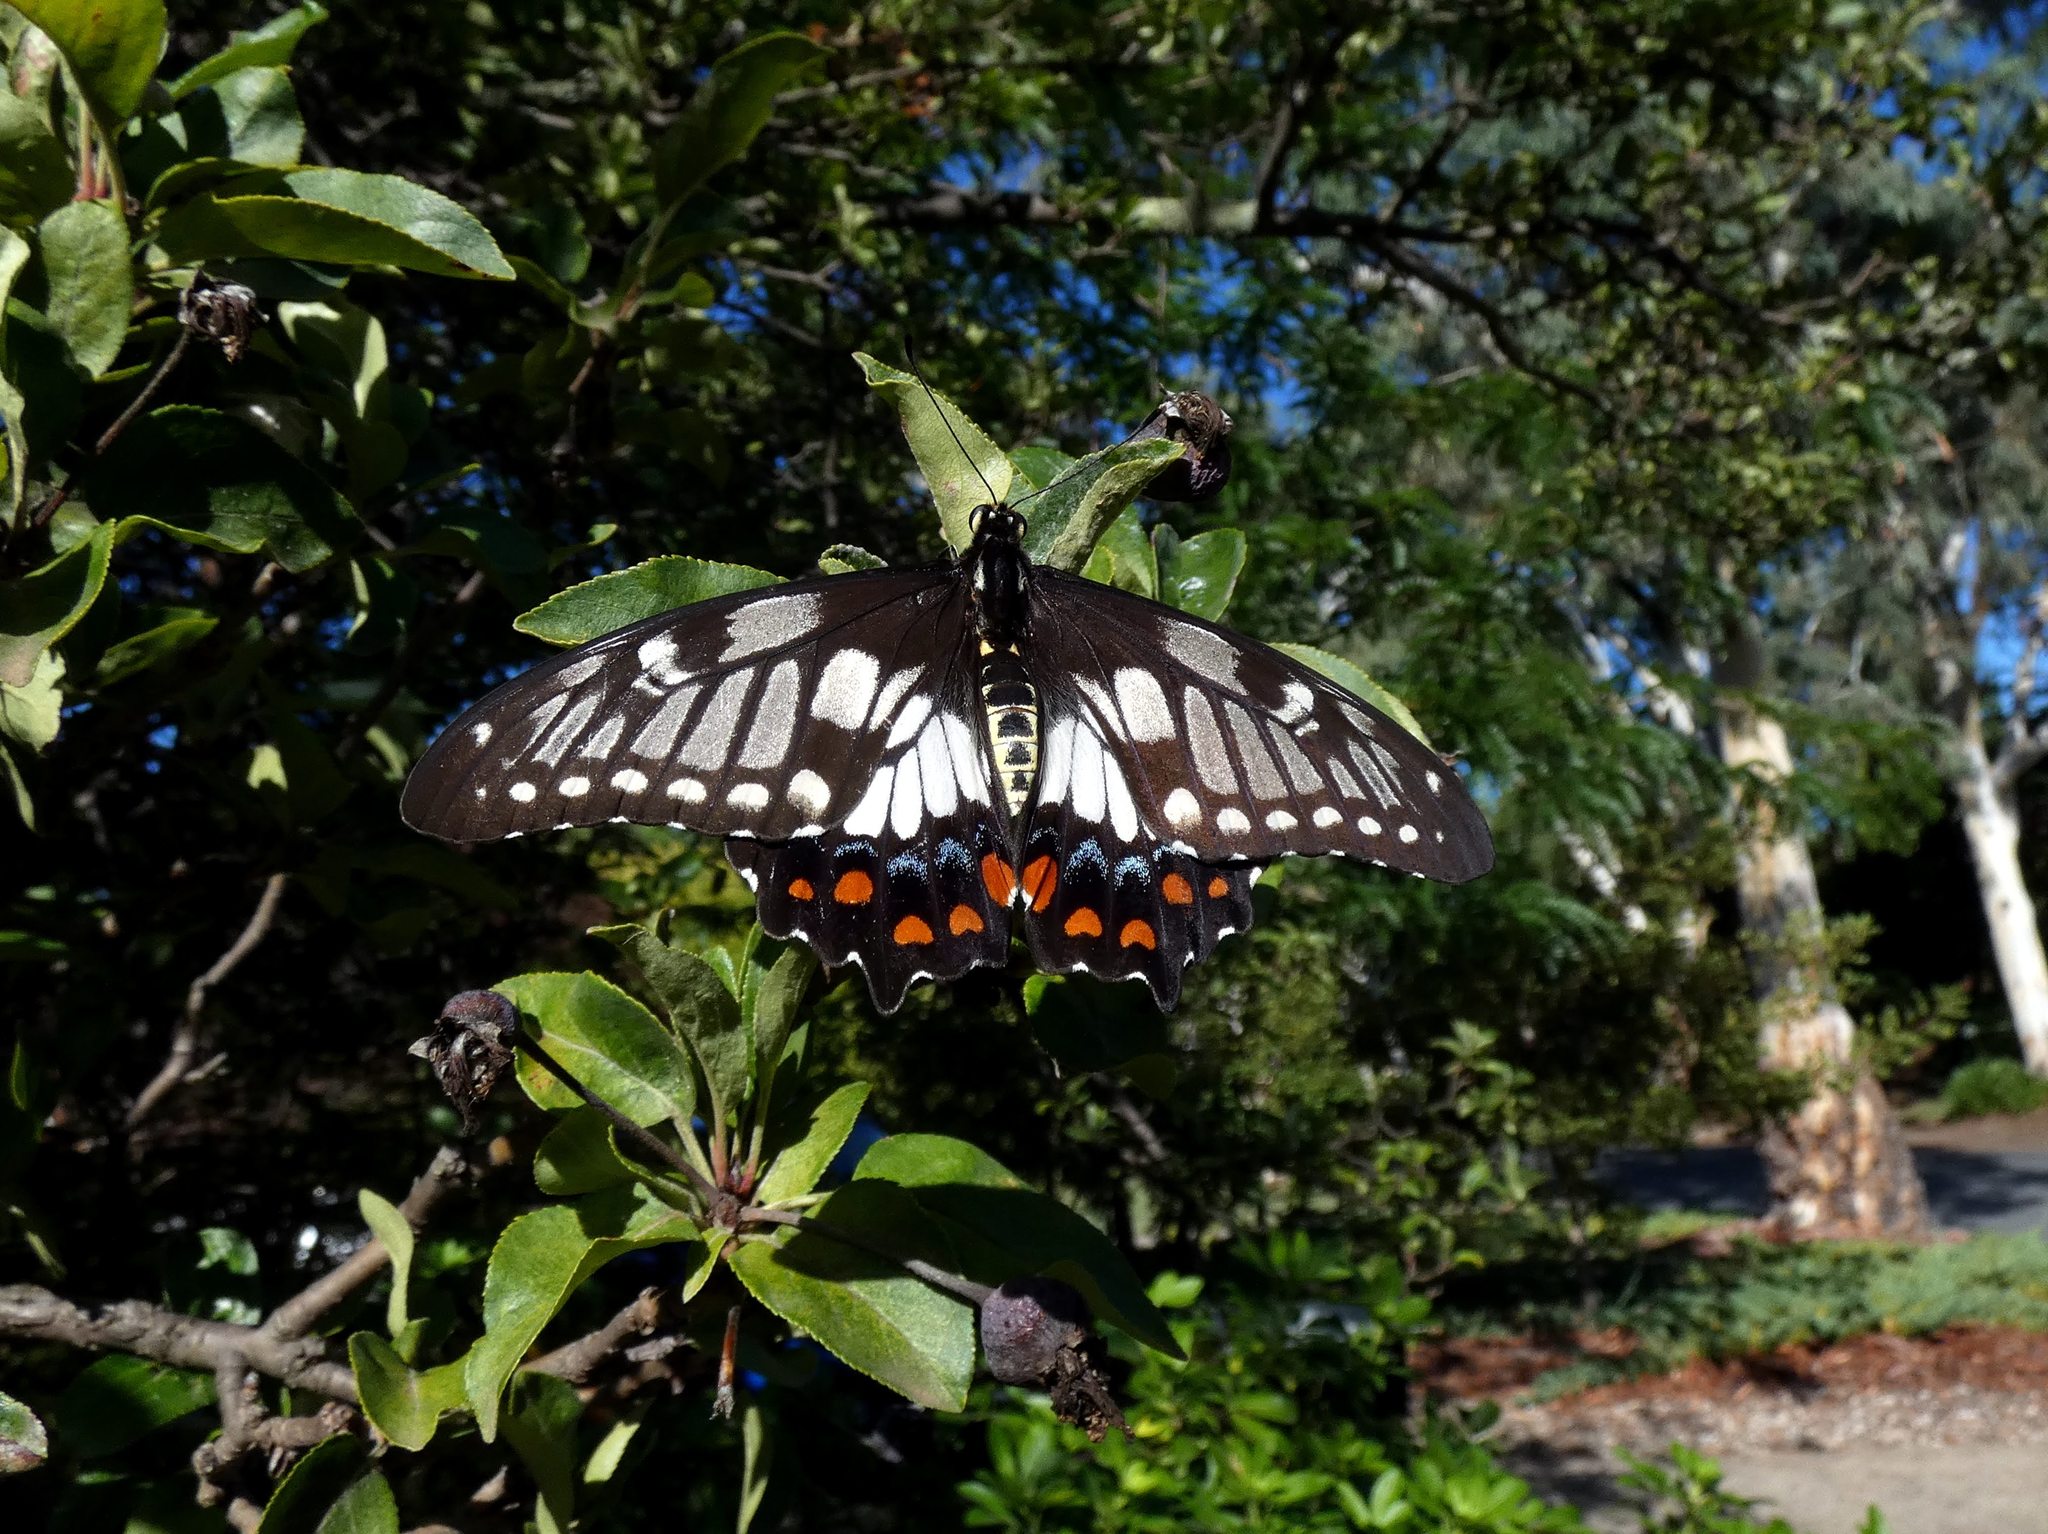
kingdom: Animalia
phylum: Arthropoda
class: Insecta
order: Lepidoptera
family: Papilionidae
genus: Papilio
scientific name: Papilio anactus
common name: Dingy swallowtail
